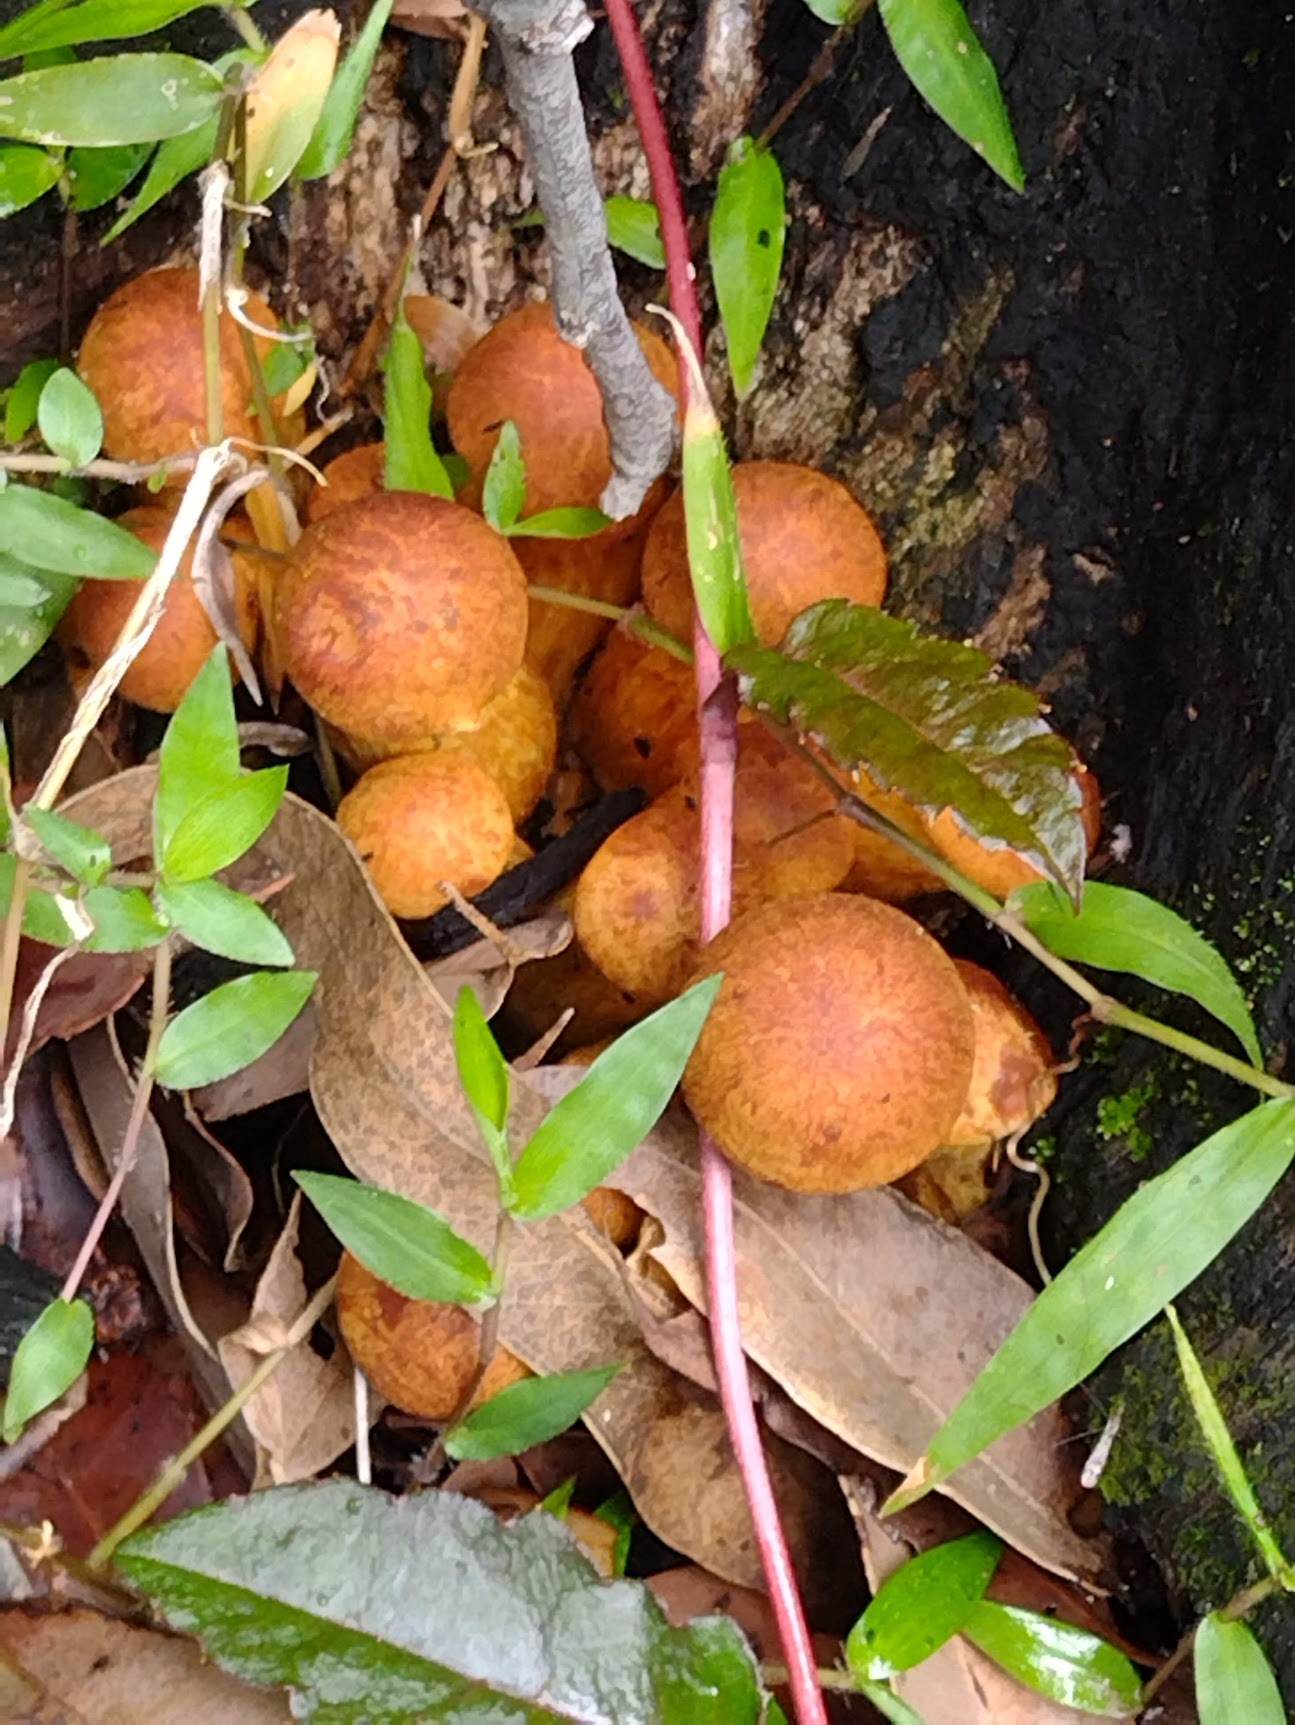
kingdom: Fungi
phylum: Basidiomycota
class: Agaricomycetes
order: Agaricales
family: Hymenogastraceae
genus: Gymnopilus
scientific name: Gymnopilus junonius
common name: Spectacular rustgill
